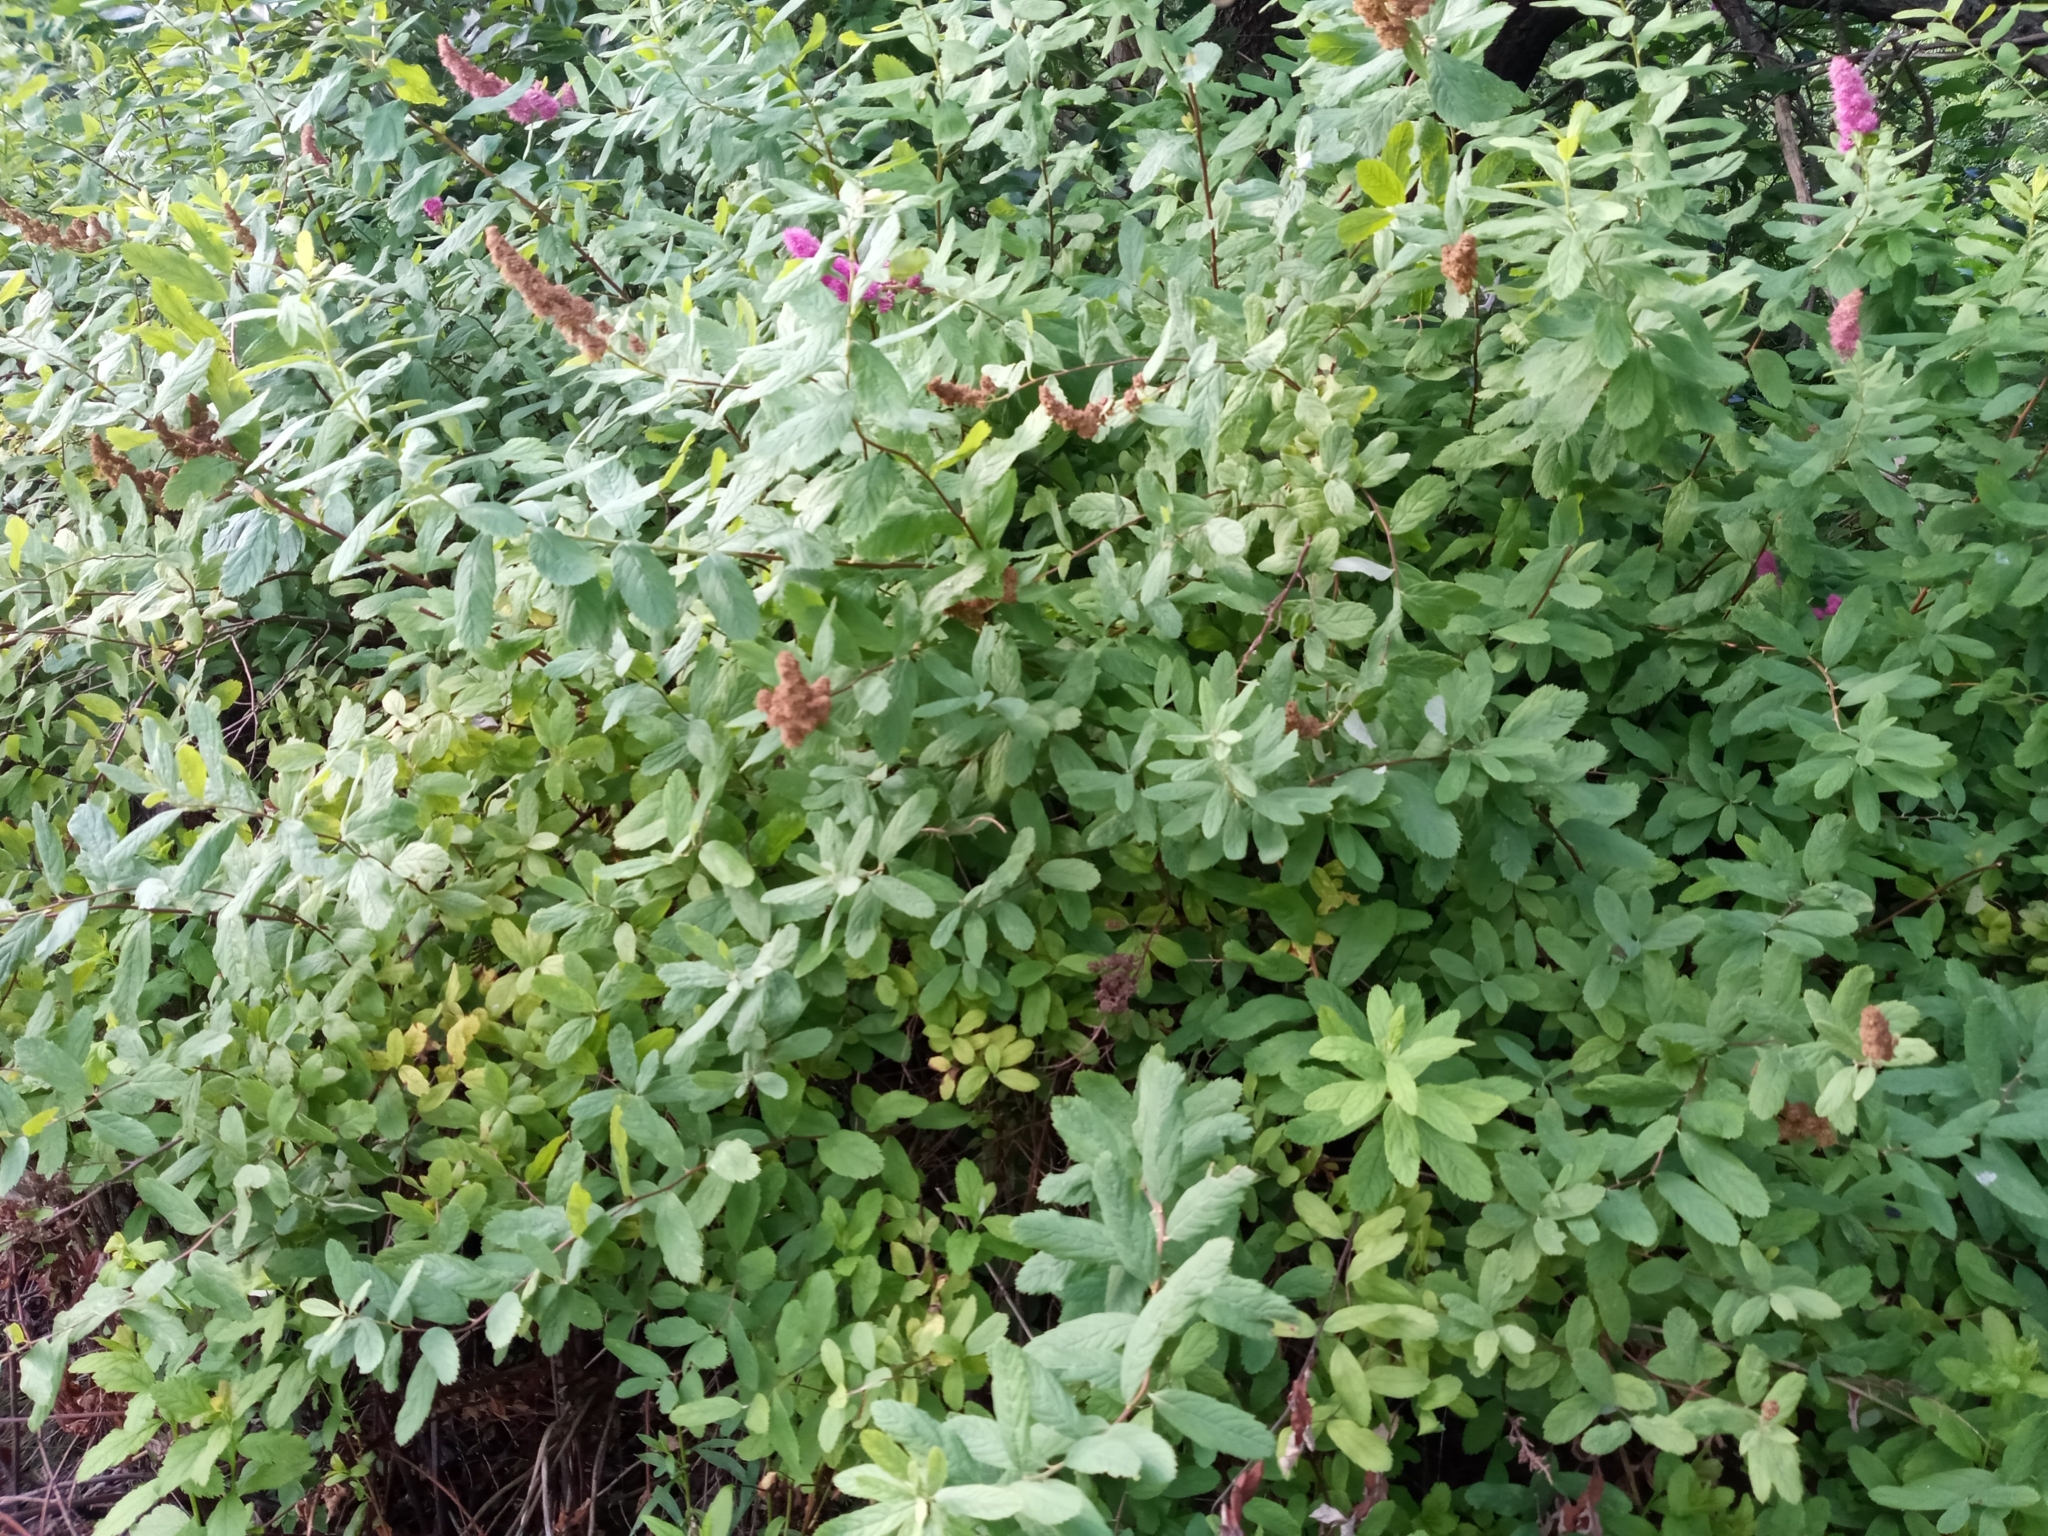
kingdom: Plantae
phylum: Tracheophyta
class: Magnoliopsida
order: Rosales
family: Rosaceae
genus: Spiraea
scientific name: Spiraea douglasii
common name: Steeplebush
